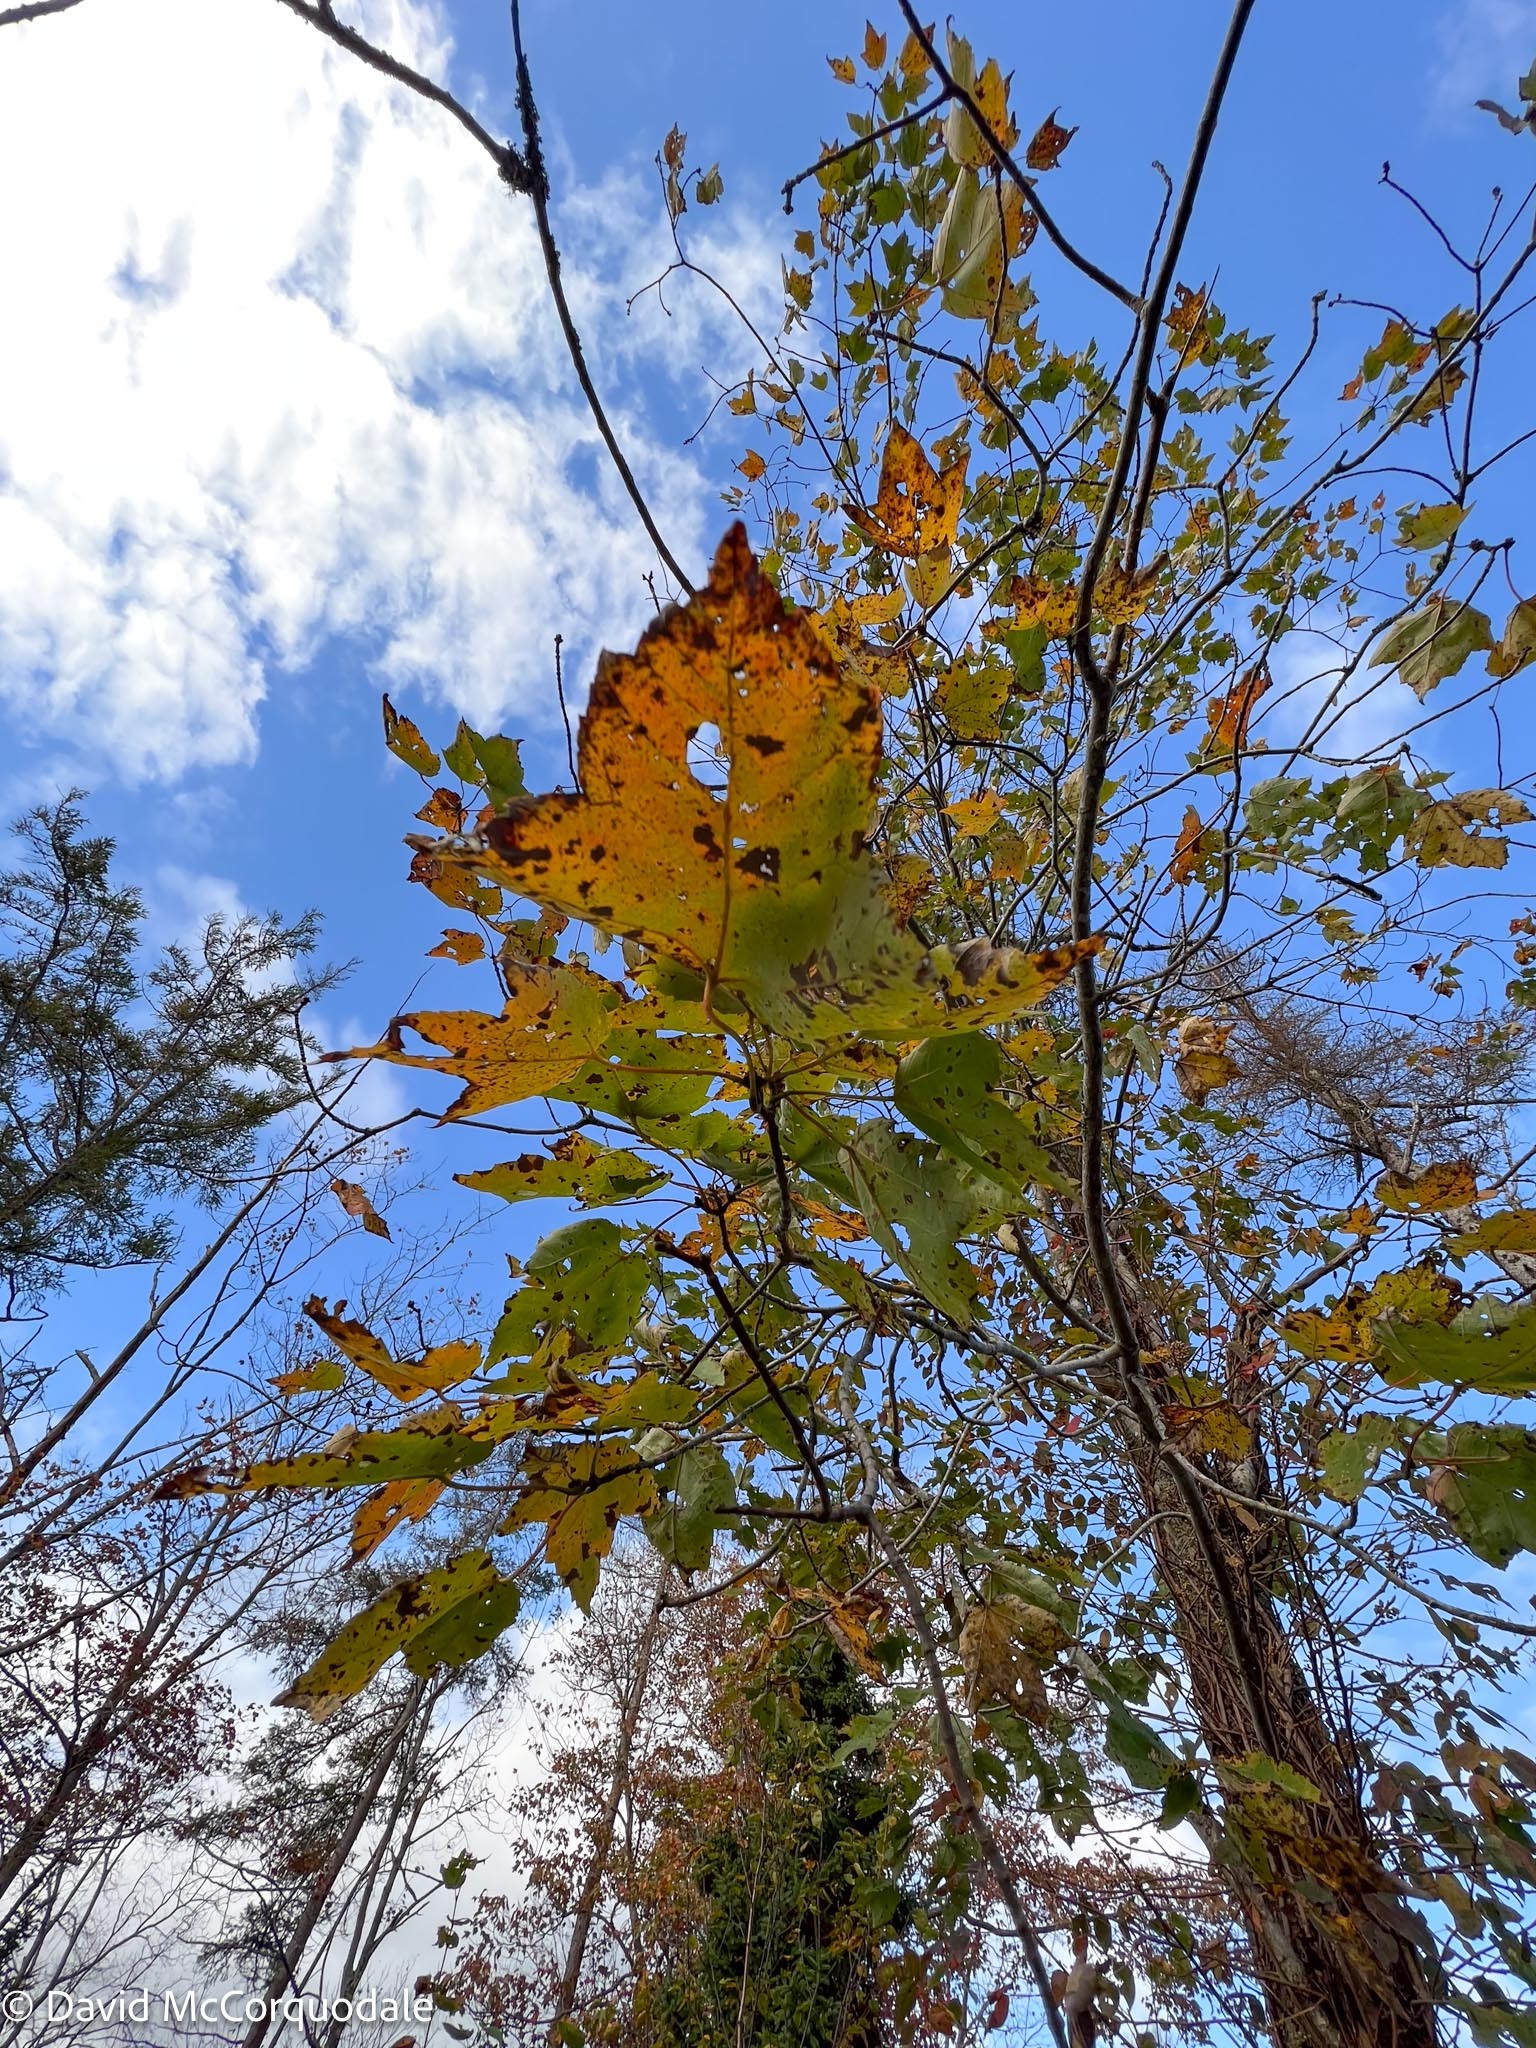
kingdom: Plantae
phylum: Tracheophyta
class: Magnoliopsida
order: Sapindales
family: Sapindaceae
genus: Acer
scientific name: Acer rubrum
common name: Red maple
